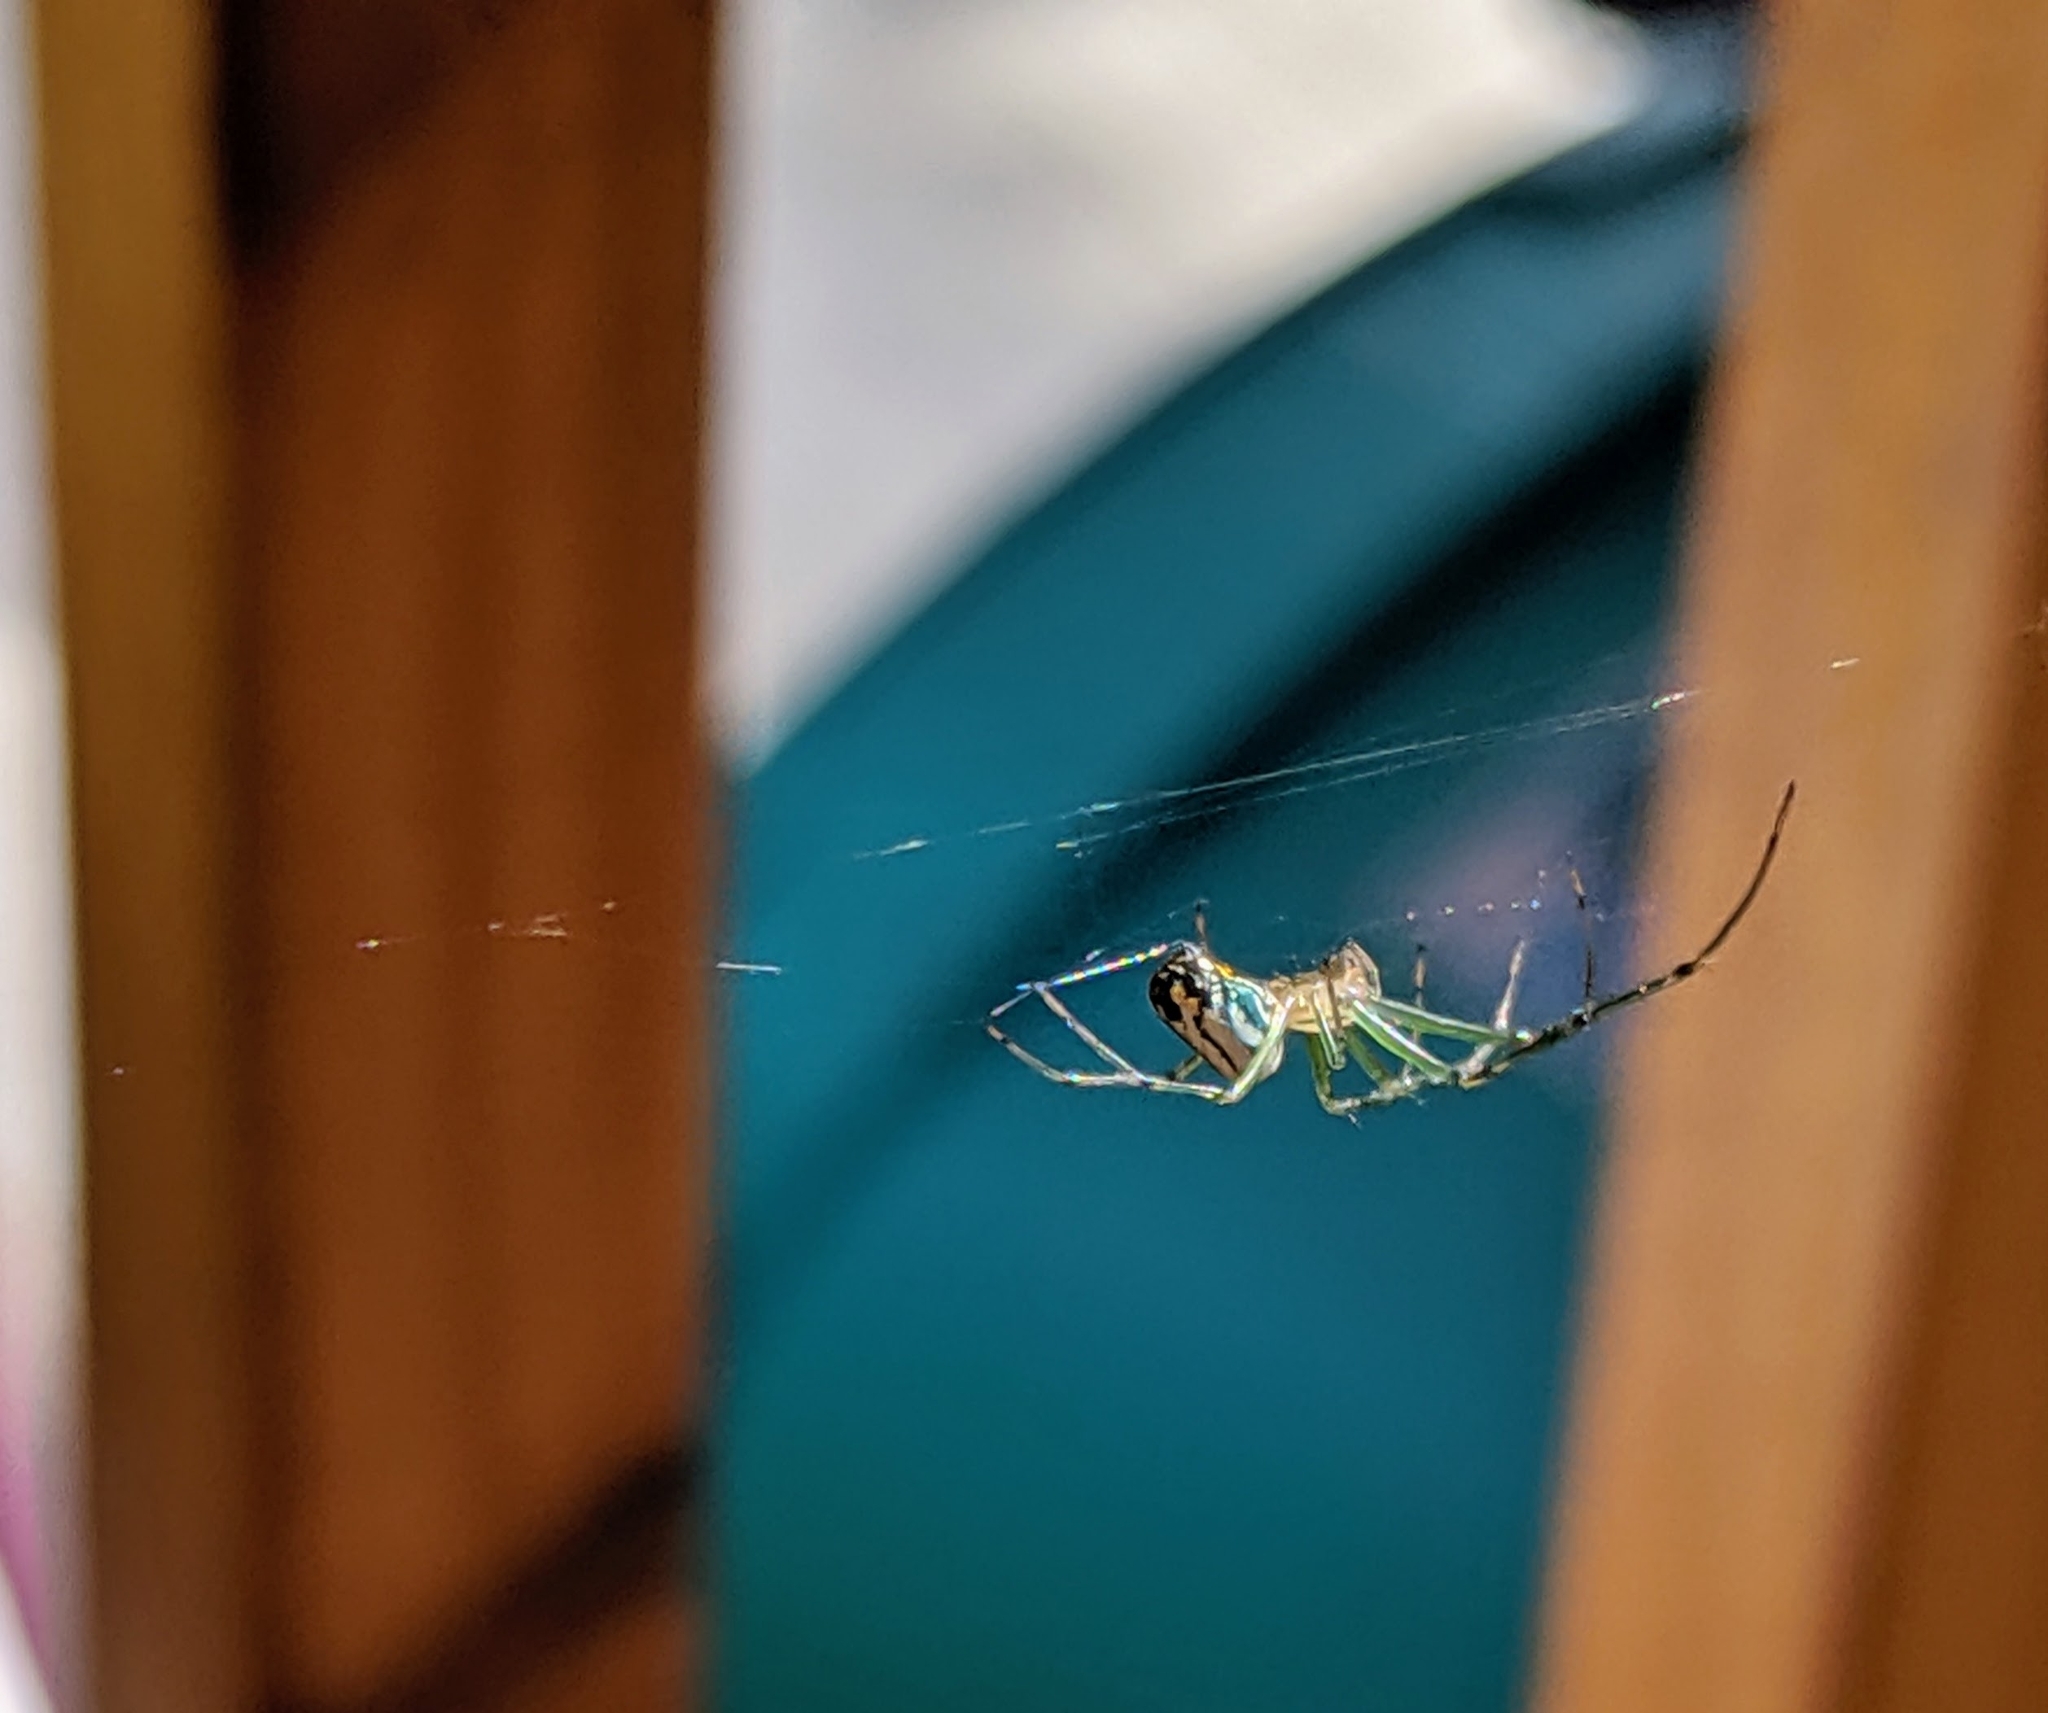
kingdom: Animalia
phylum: Arthropoda
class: Arachnida
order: Araneae
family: Tetragnathidae
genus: Leucauge
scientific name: Leucauge venusta
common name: Longjawed orb weavers
